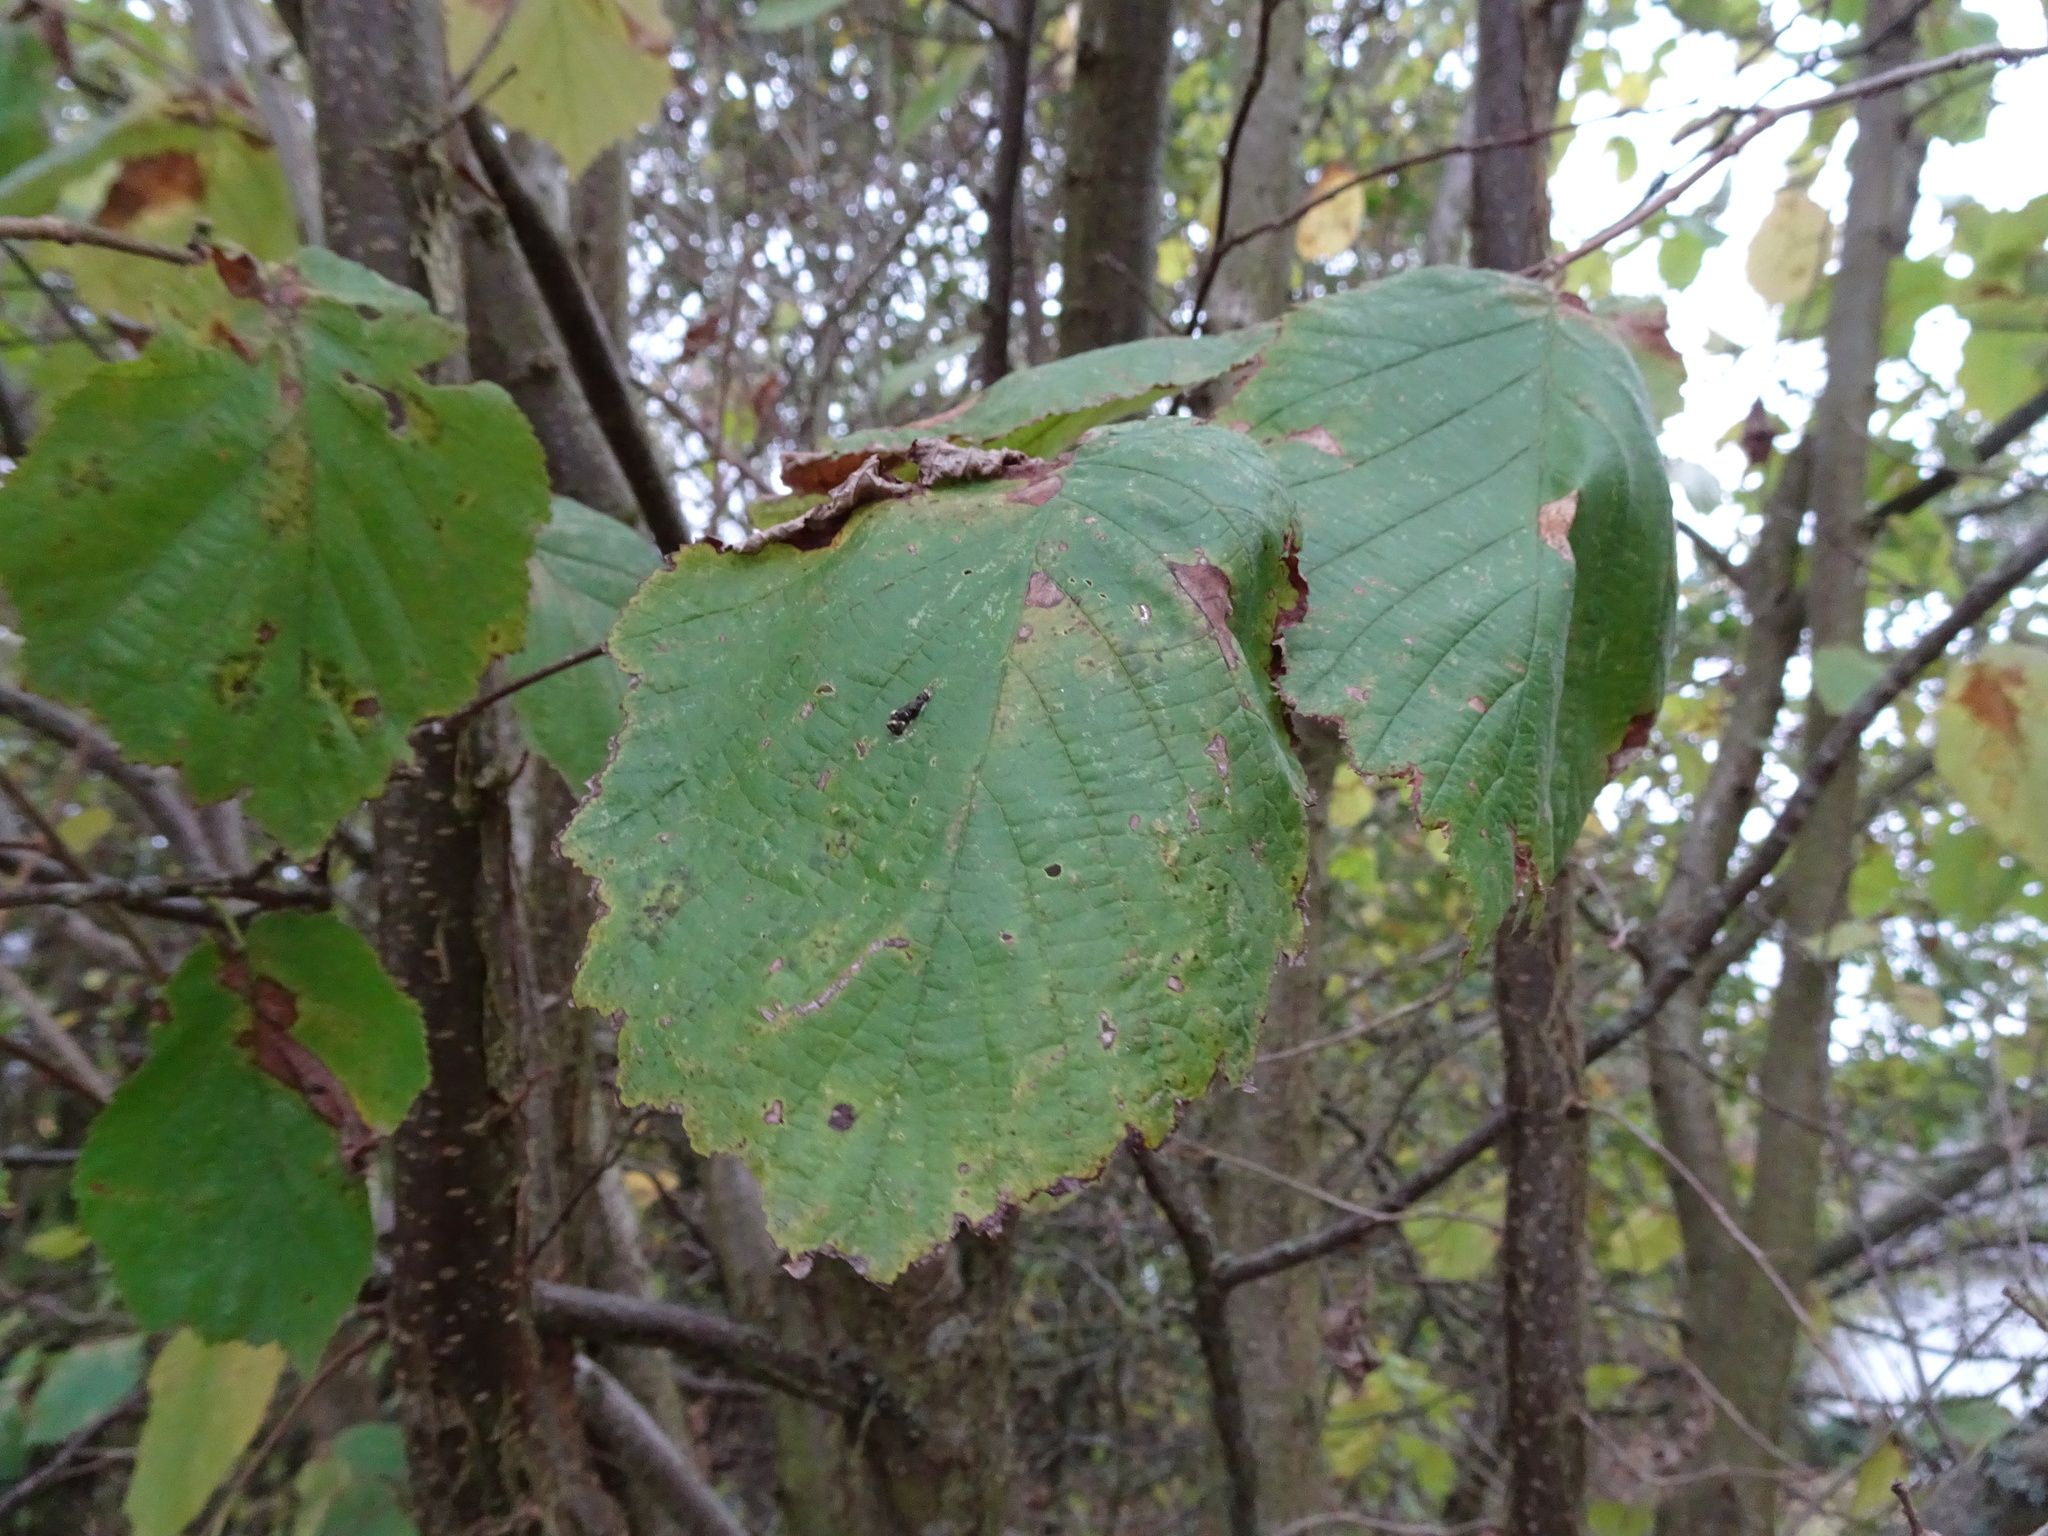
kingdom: Plantae
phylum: Tracheophyta
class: Magnoliopsida
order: Fagales
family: Betulaceae
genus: Corylus
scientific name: Corylus avellana
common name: European hazel
